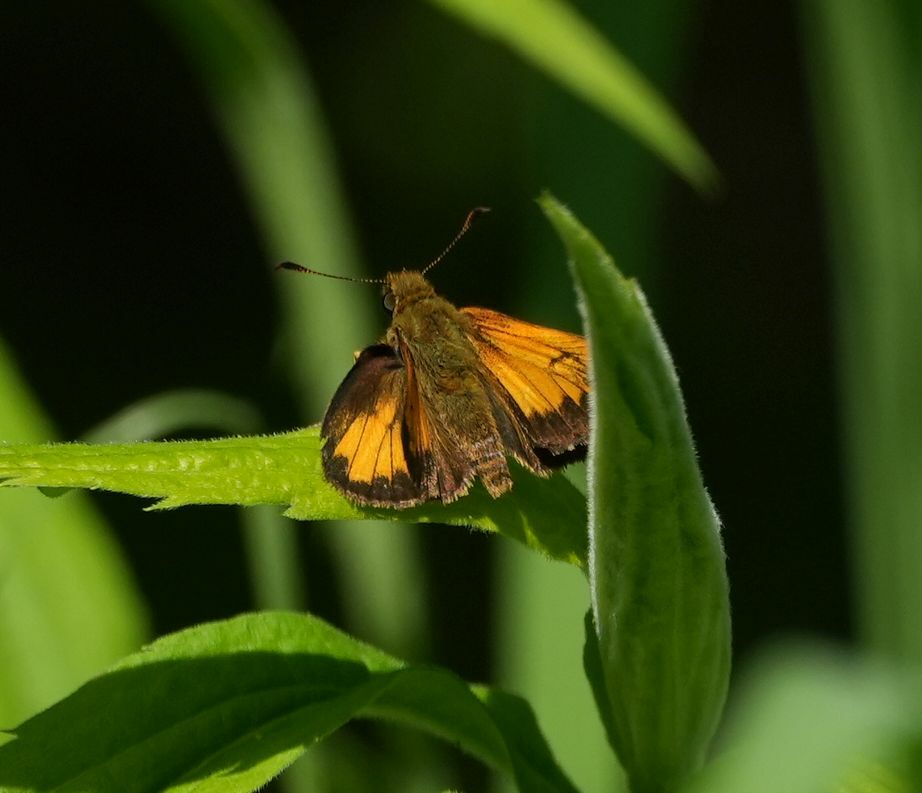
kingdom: Animalia
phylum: Arthropoda
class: Insecta
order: Lepidoptera
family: Hesperiidae
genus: Lon
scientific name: Lon hobomok
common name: Hobomok skipper
